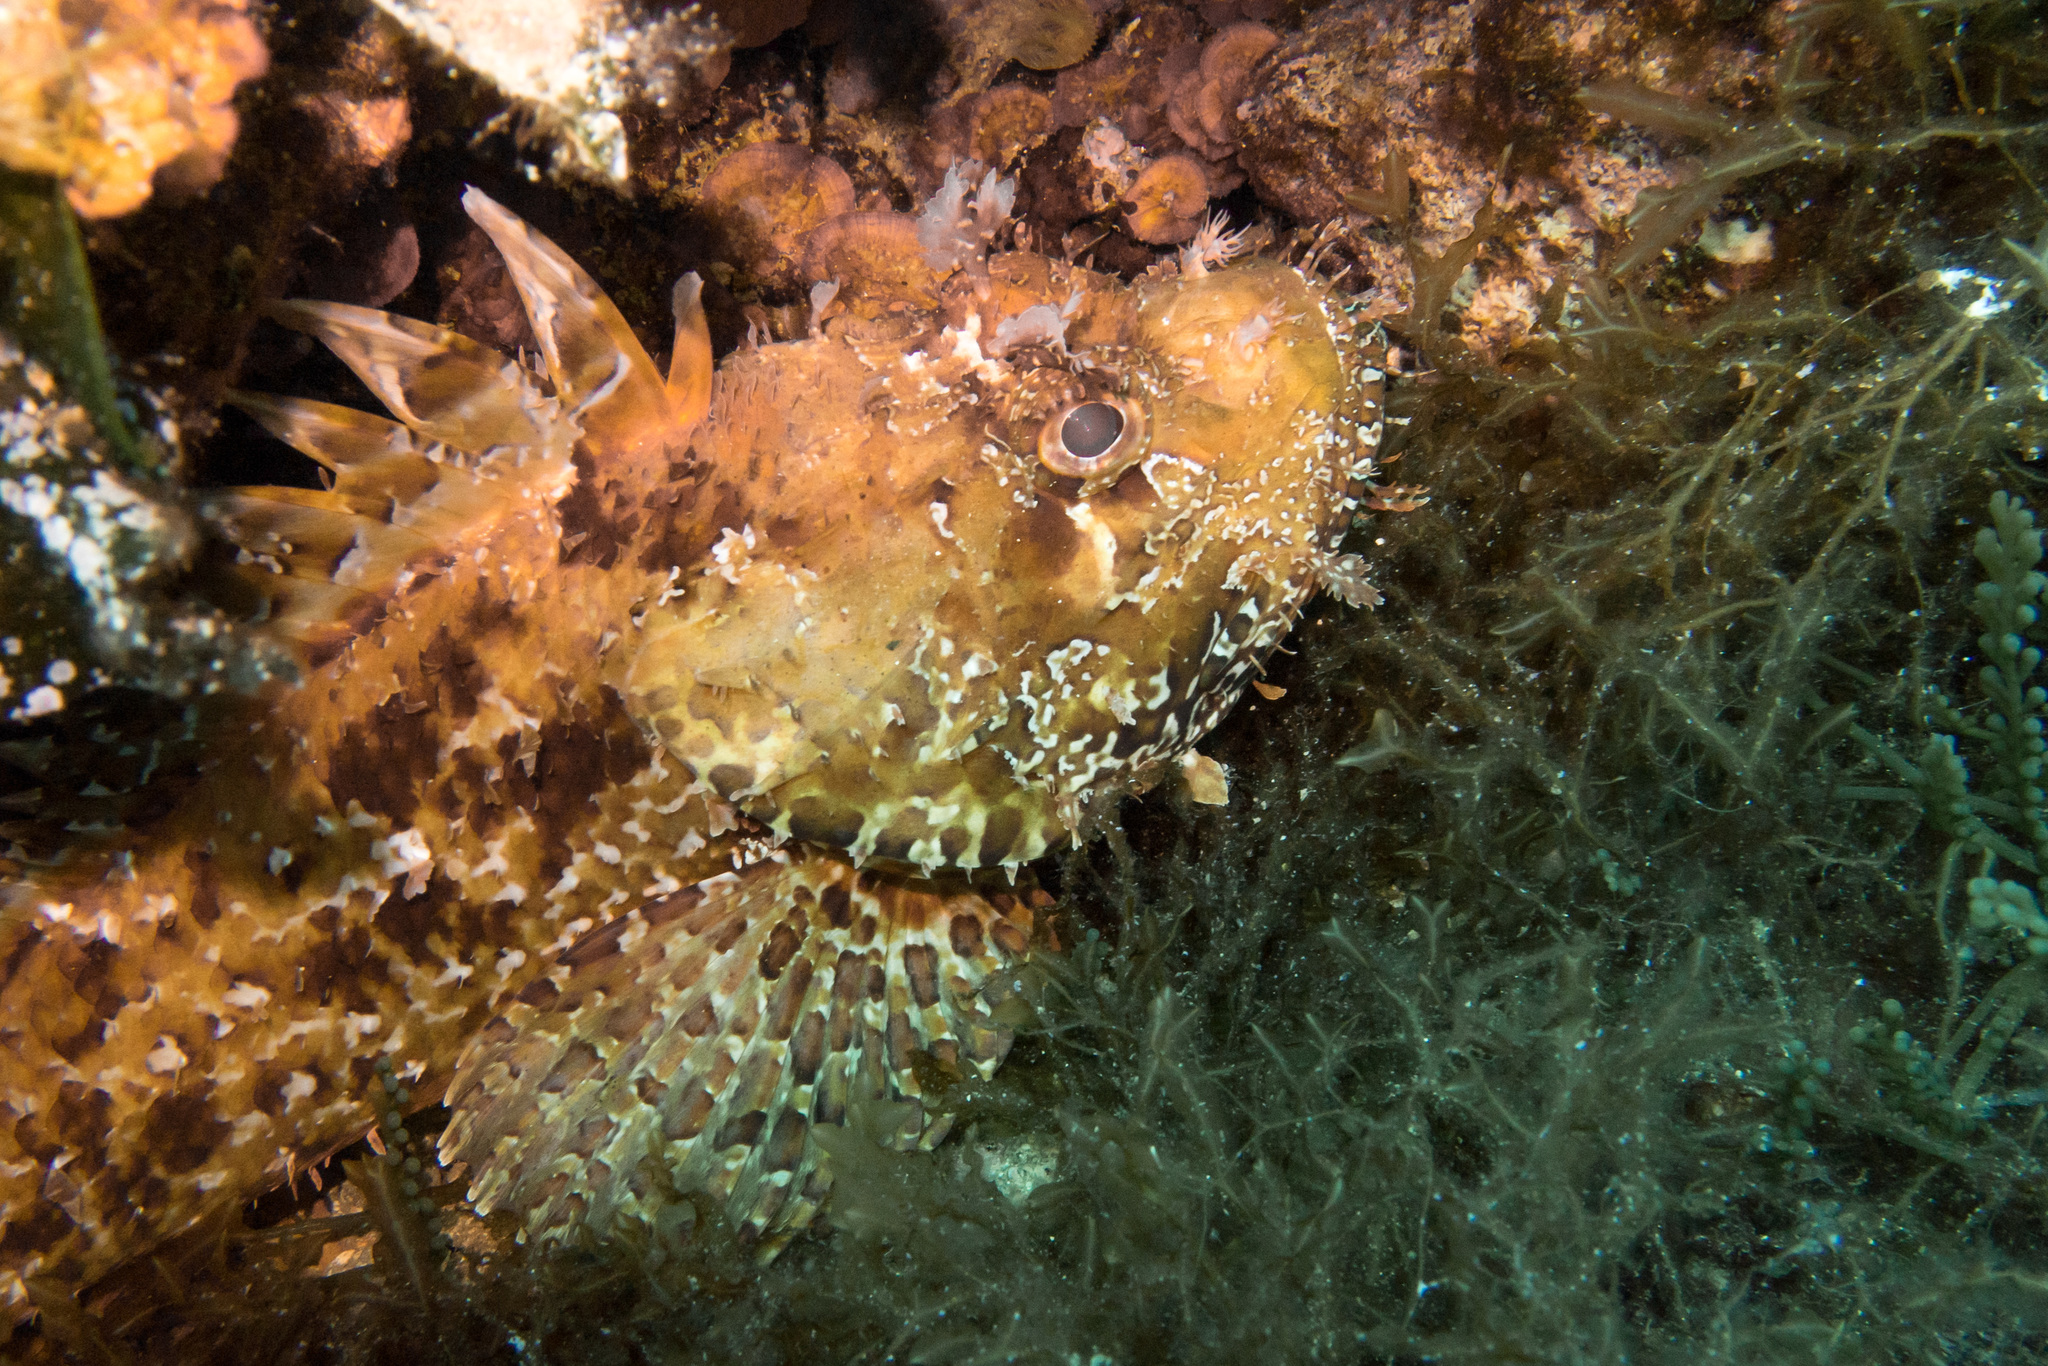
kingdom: Animalia
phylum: Chordata
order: Scorpaeniformes
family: Scorpaenidae
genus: Scorpaena
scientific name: Scorpaena scrofa
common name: Red scorpionfish
